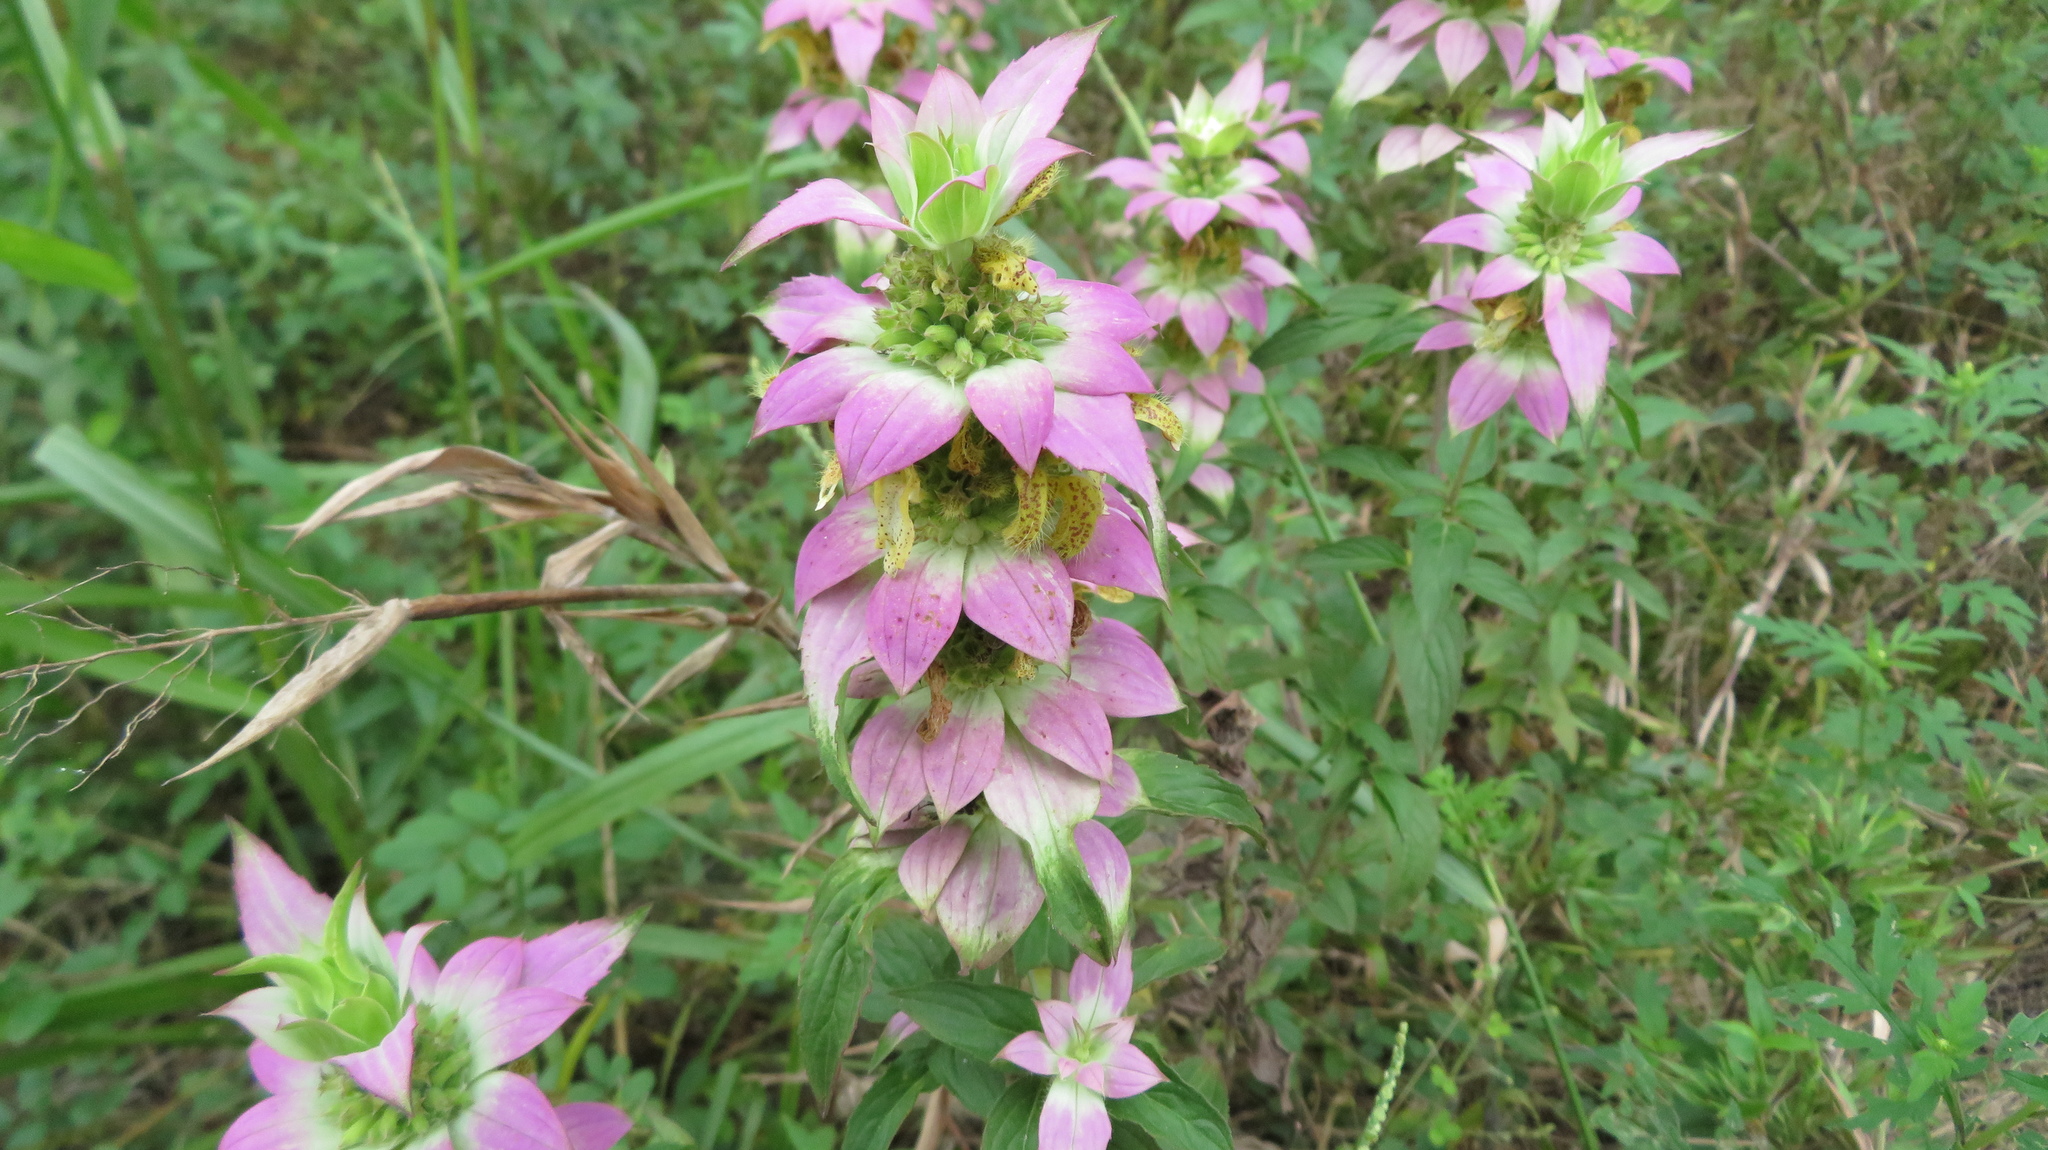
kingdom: Plantae
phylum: Tracheophyta
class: Magnoliopsida
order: Lamiales
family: Lamiaceae
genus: Monarda
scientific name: Monarda punctata
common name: Dotted monarda
